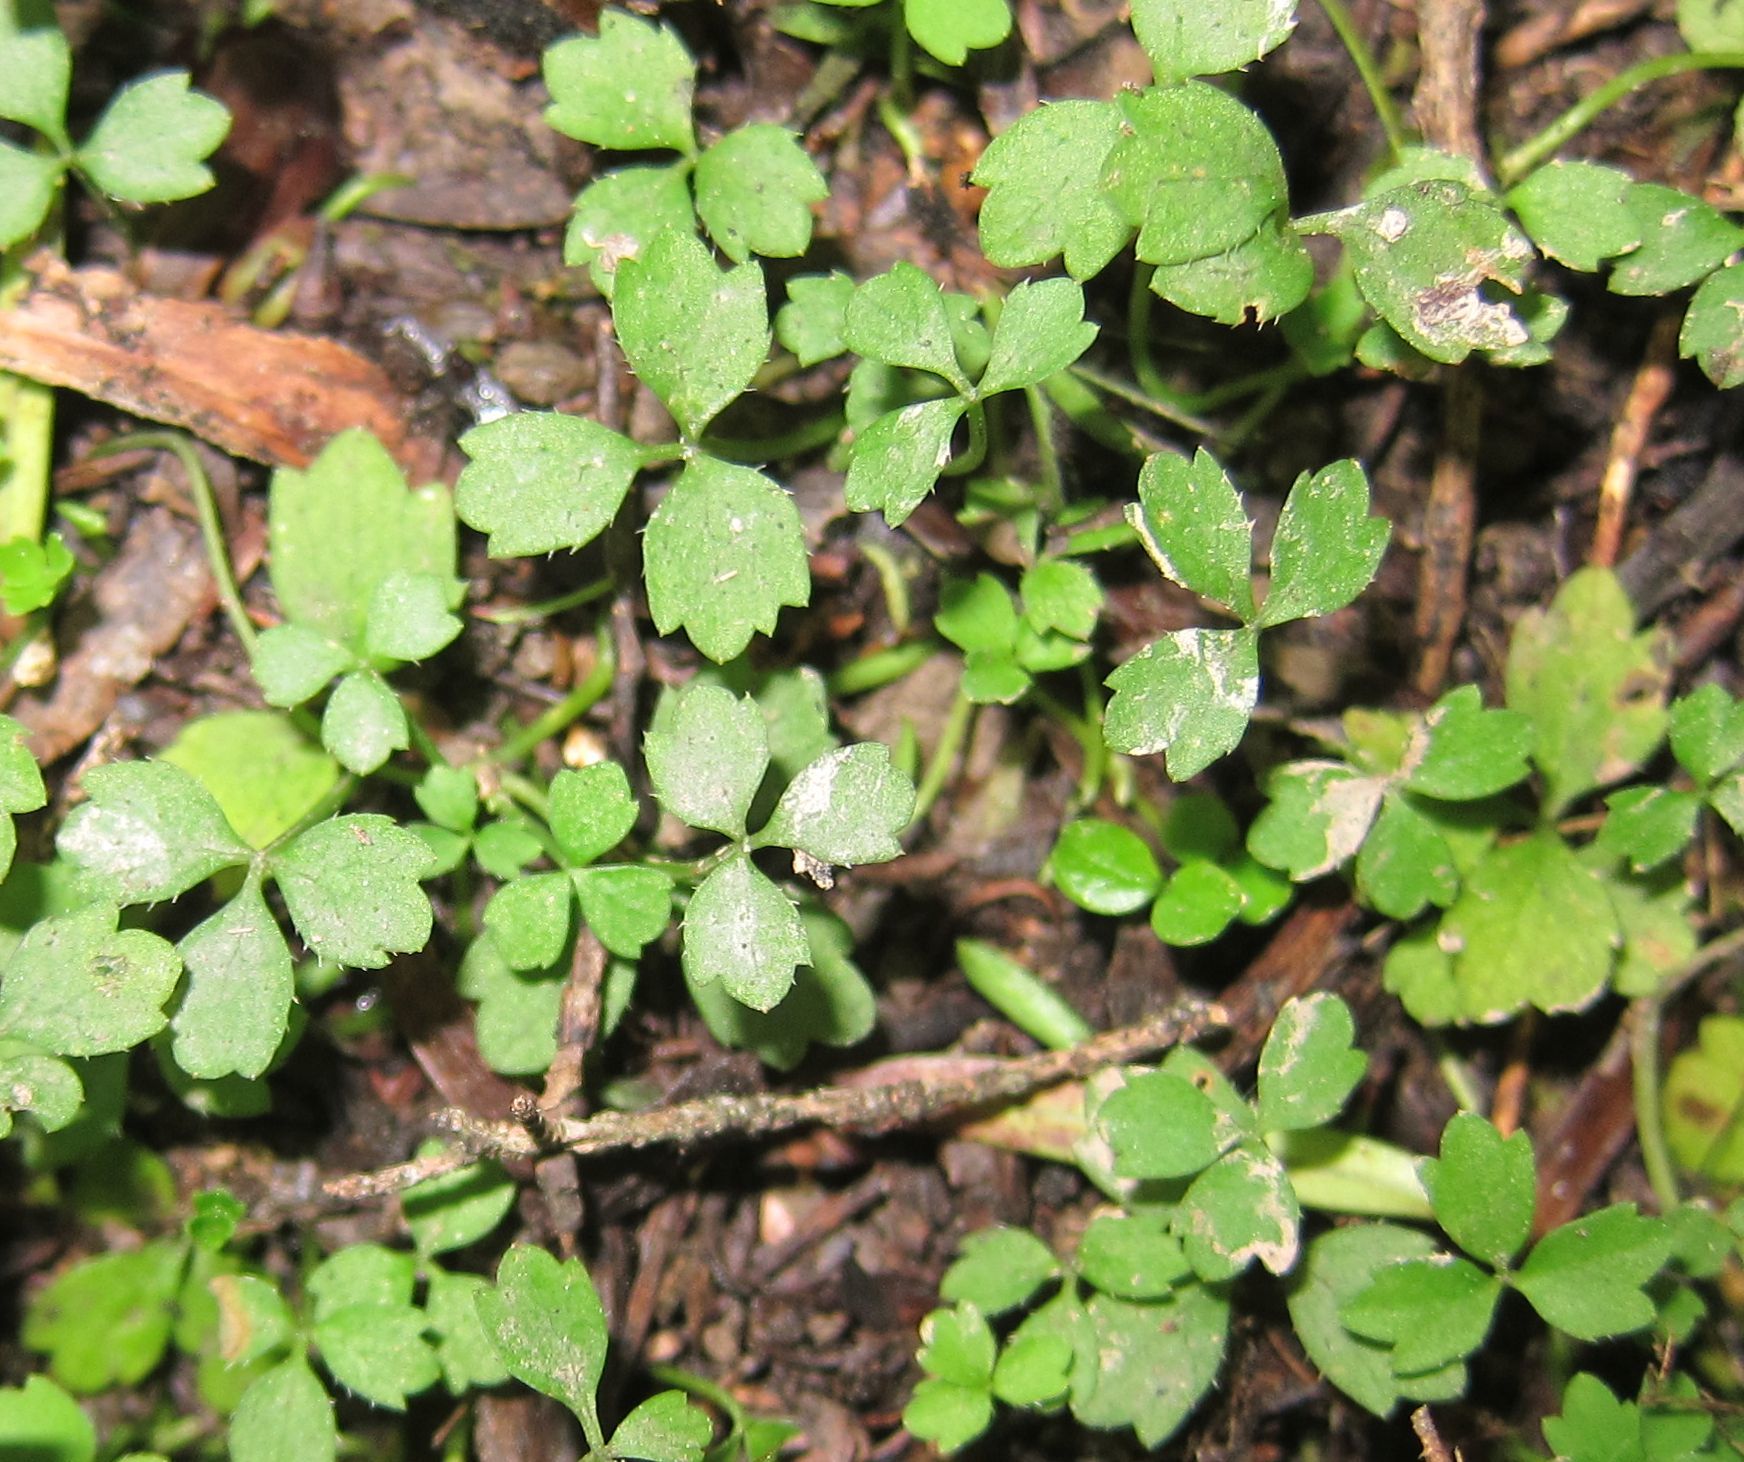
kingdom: Plantae
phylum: Tracheophyta
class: Magnoliopsida
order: Apiales
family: Apiaceae
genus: Azorella
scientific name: Azorella hookeri
